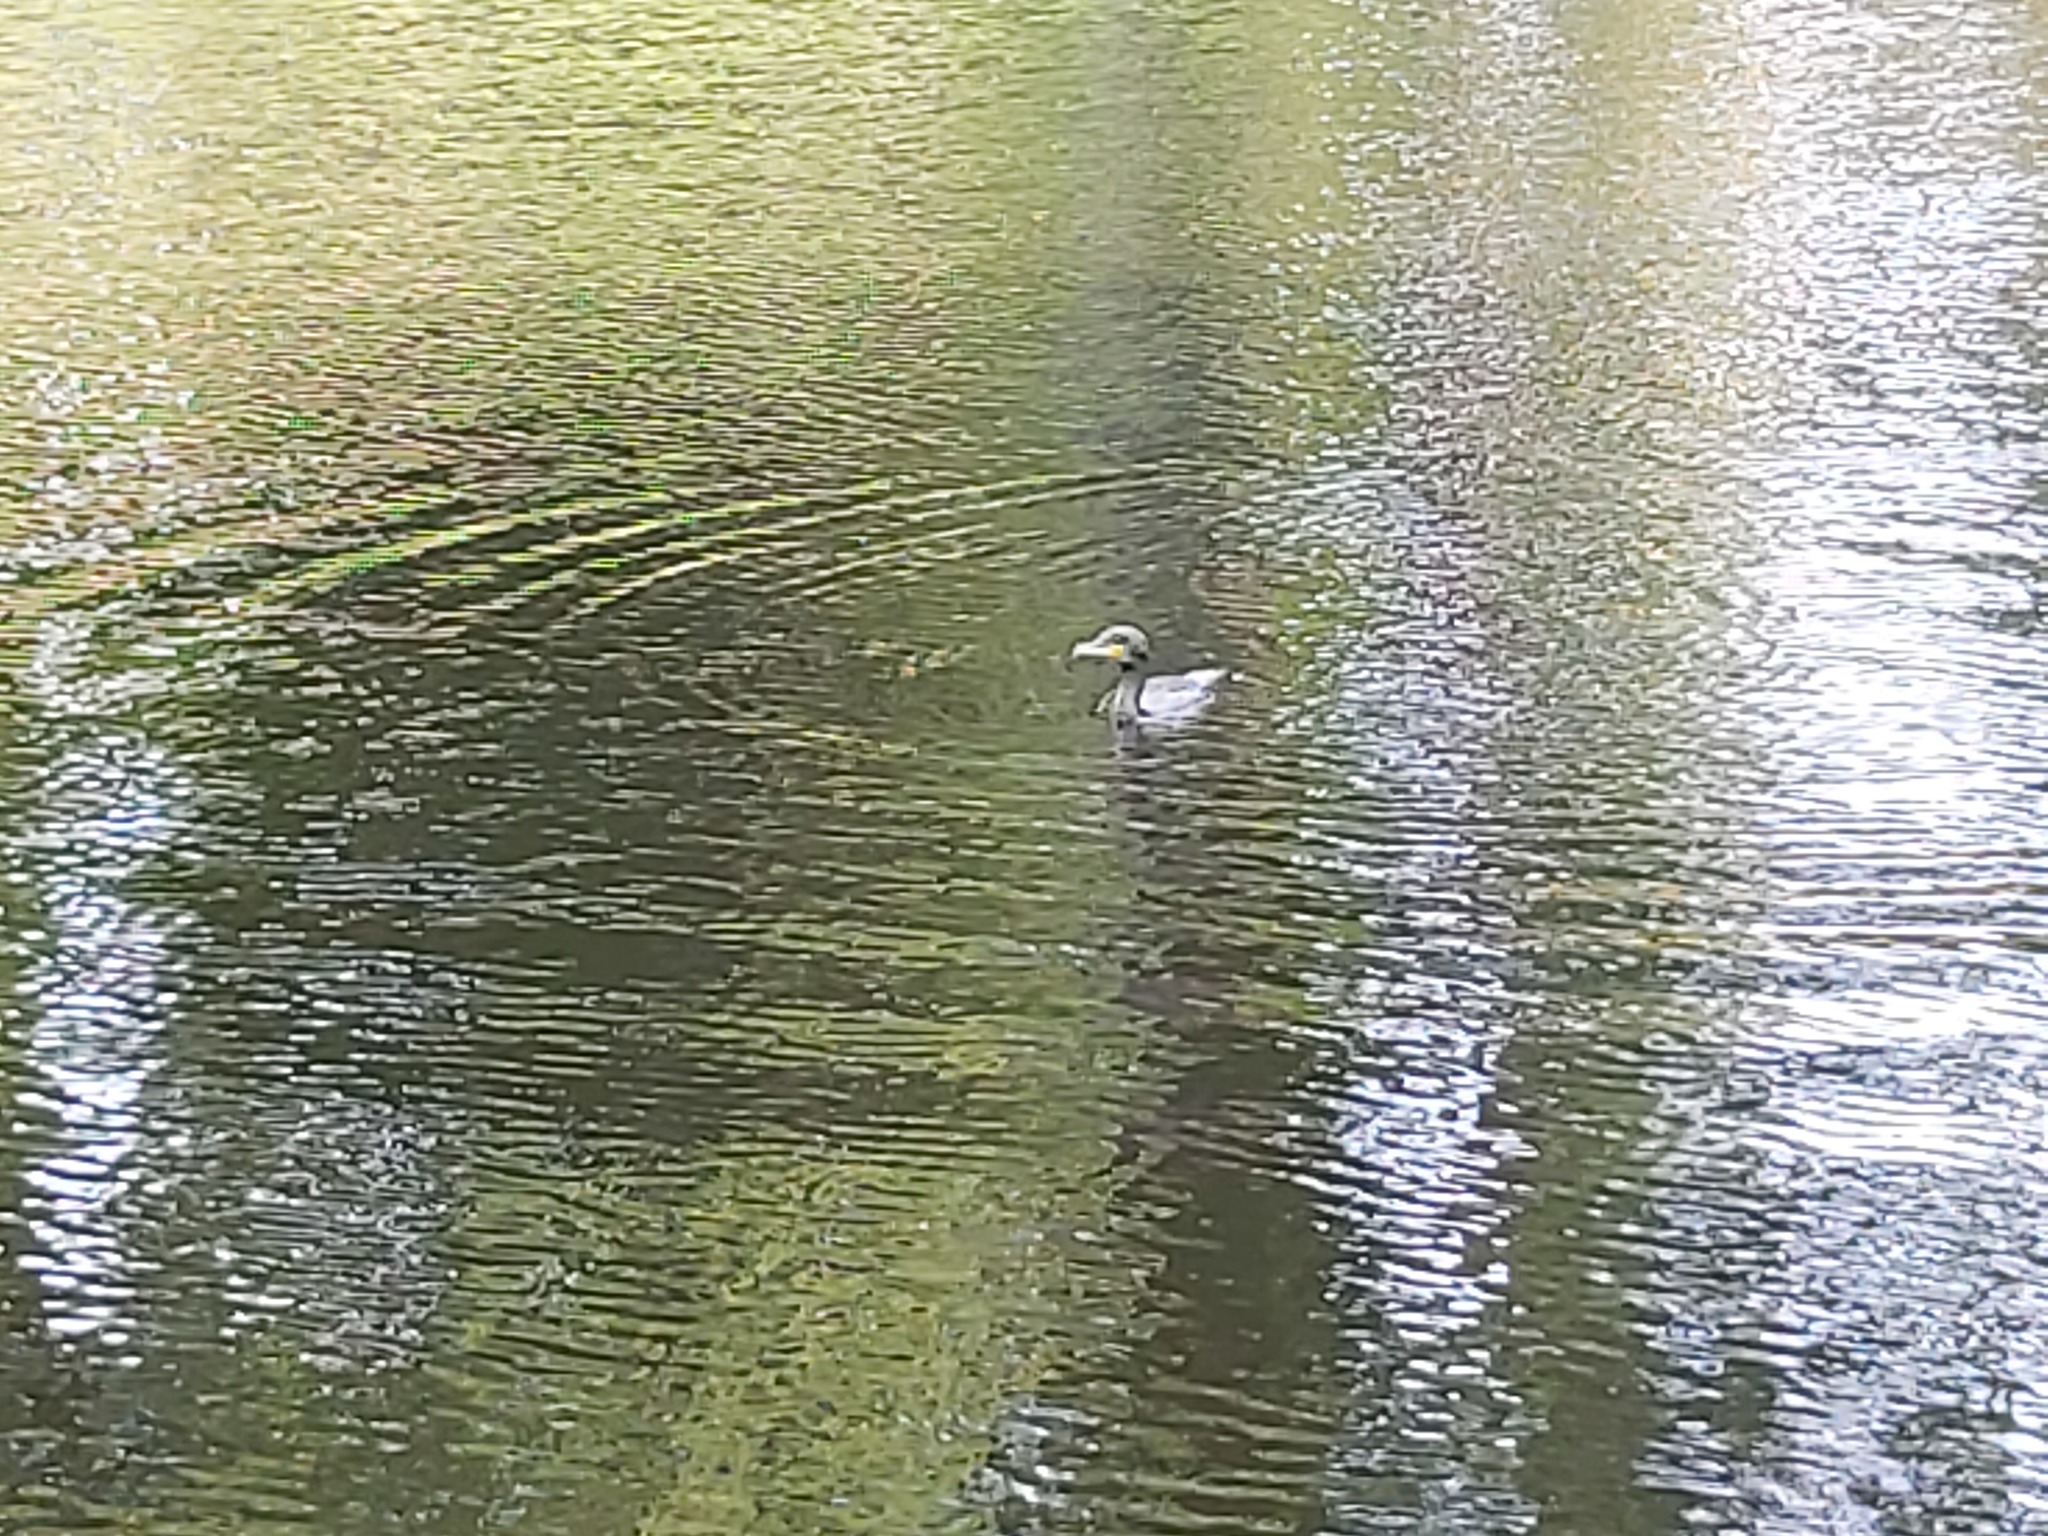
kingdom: Animalia
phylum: Chordata
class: Aves
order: Suliformes
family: Phalacrocoracidae
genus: Phalacrocorax
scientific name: Phalacrocorax carbo
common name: Great cormorant
